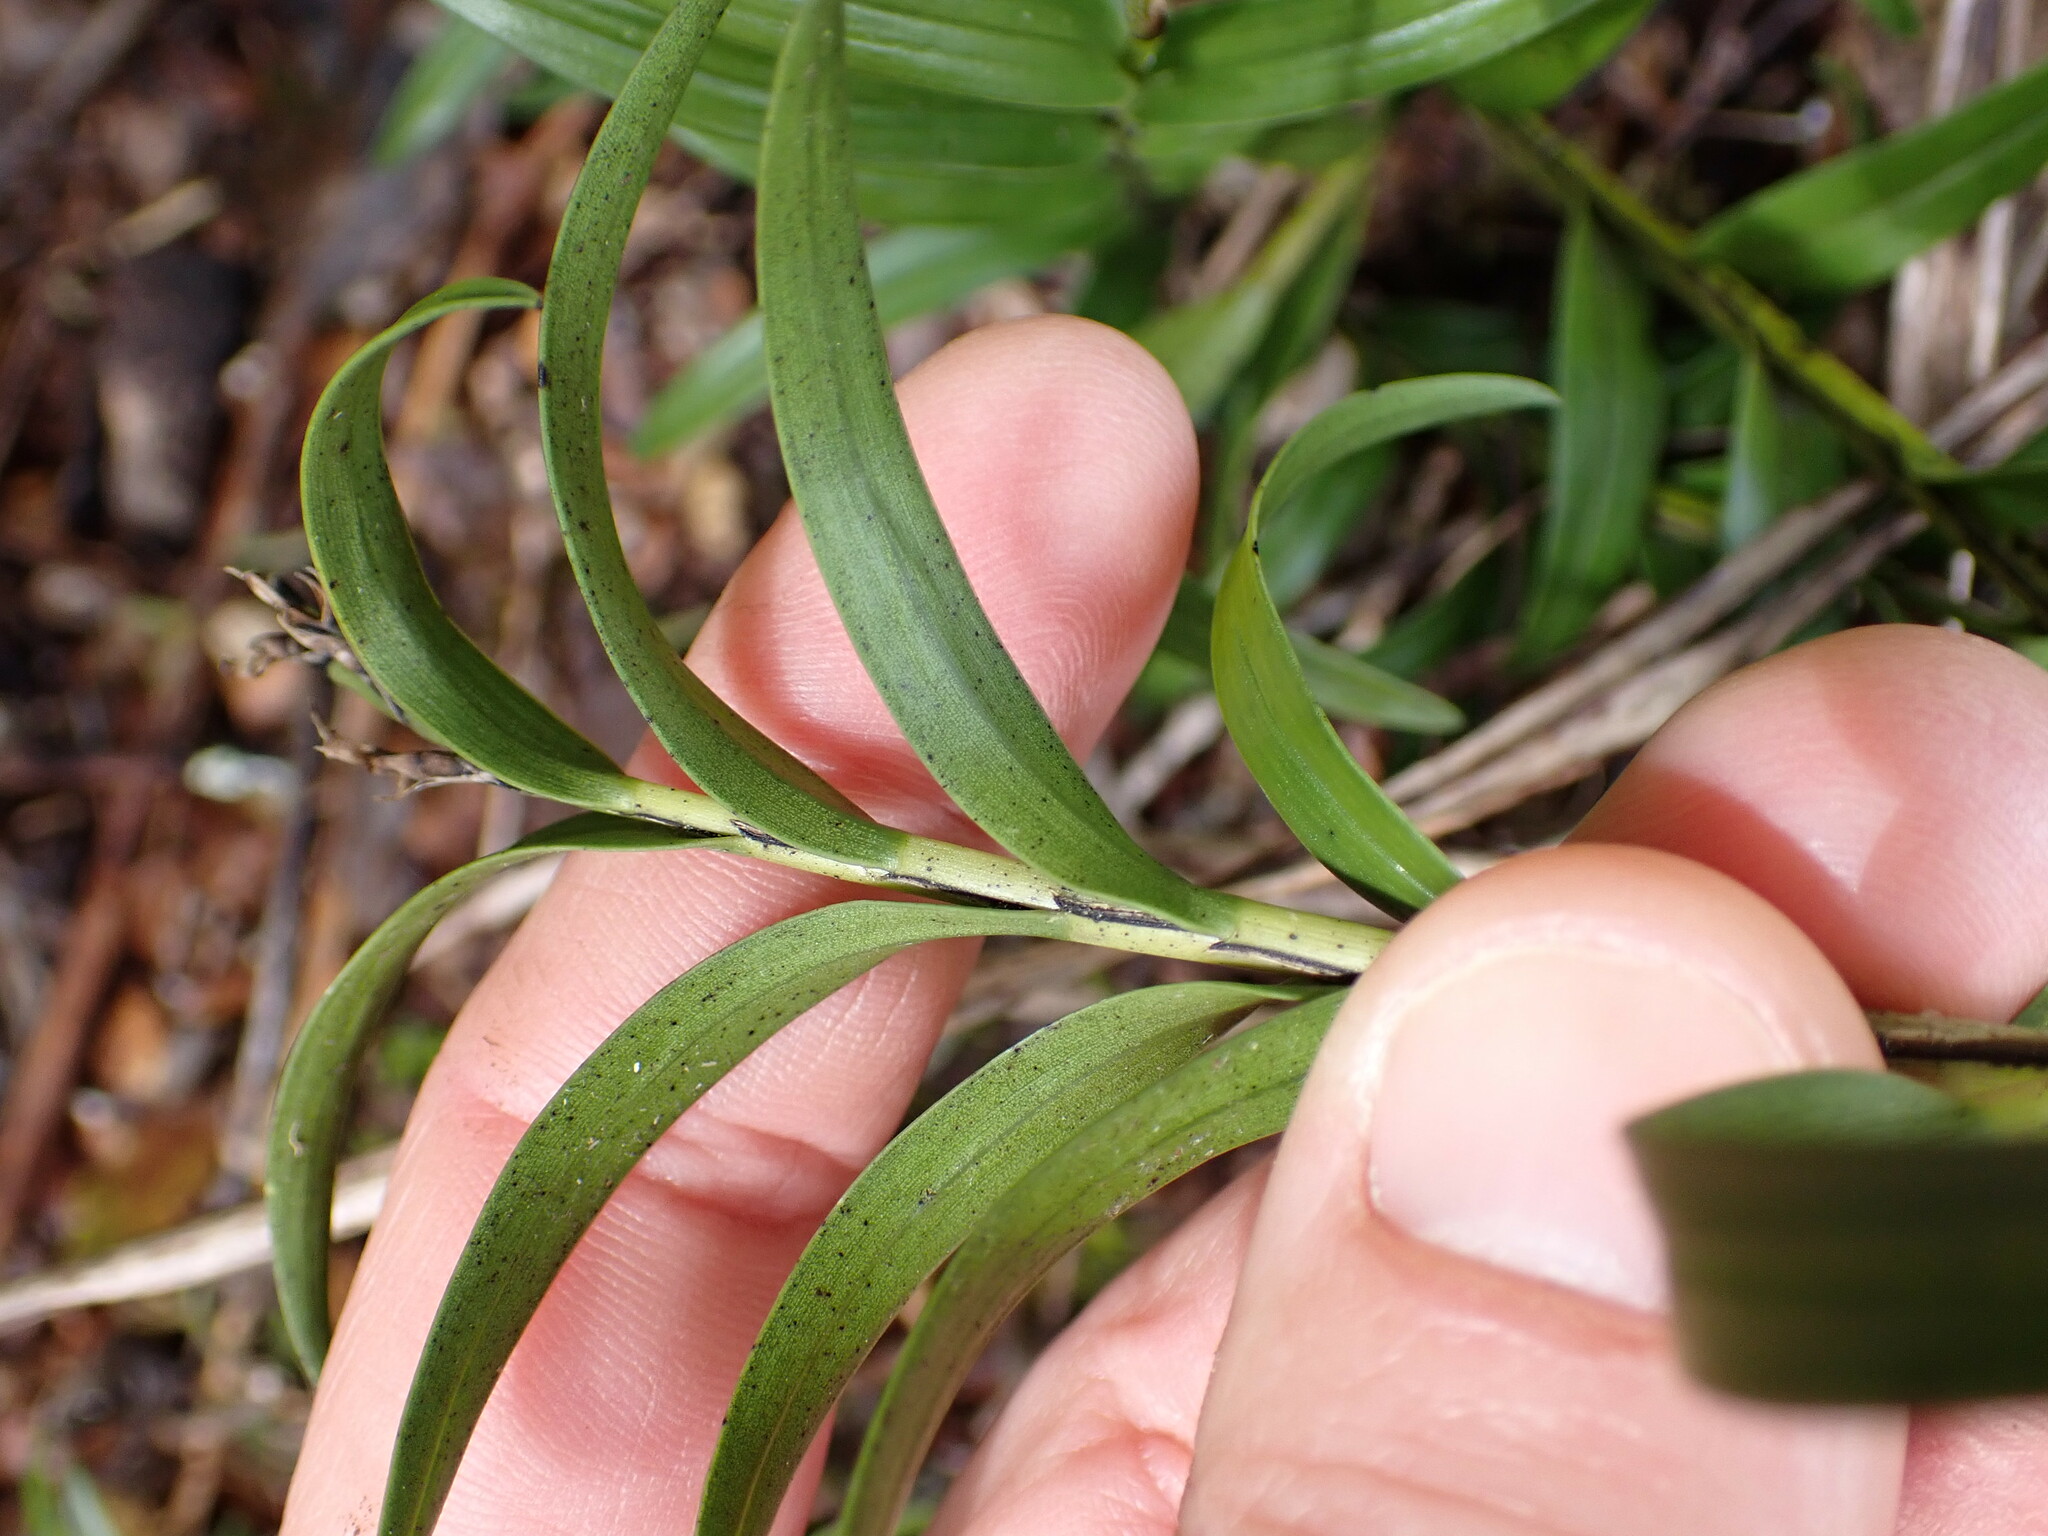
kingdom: Plantae
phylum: Tracheophyta
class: Liliopsida
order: Asparagales
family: Orchidaceae
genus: Earina
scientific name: Earina autumnalis
